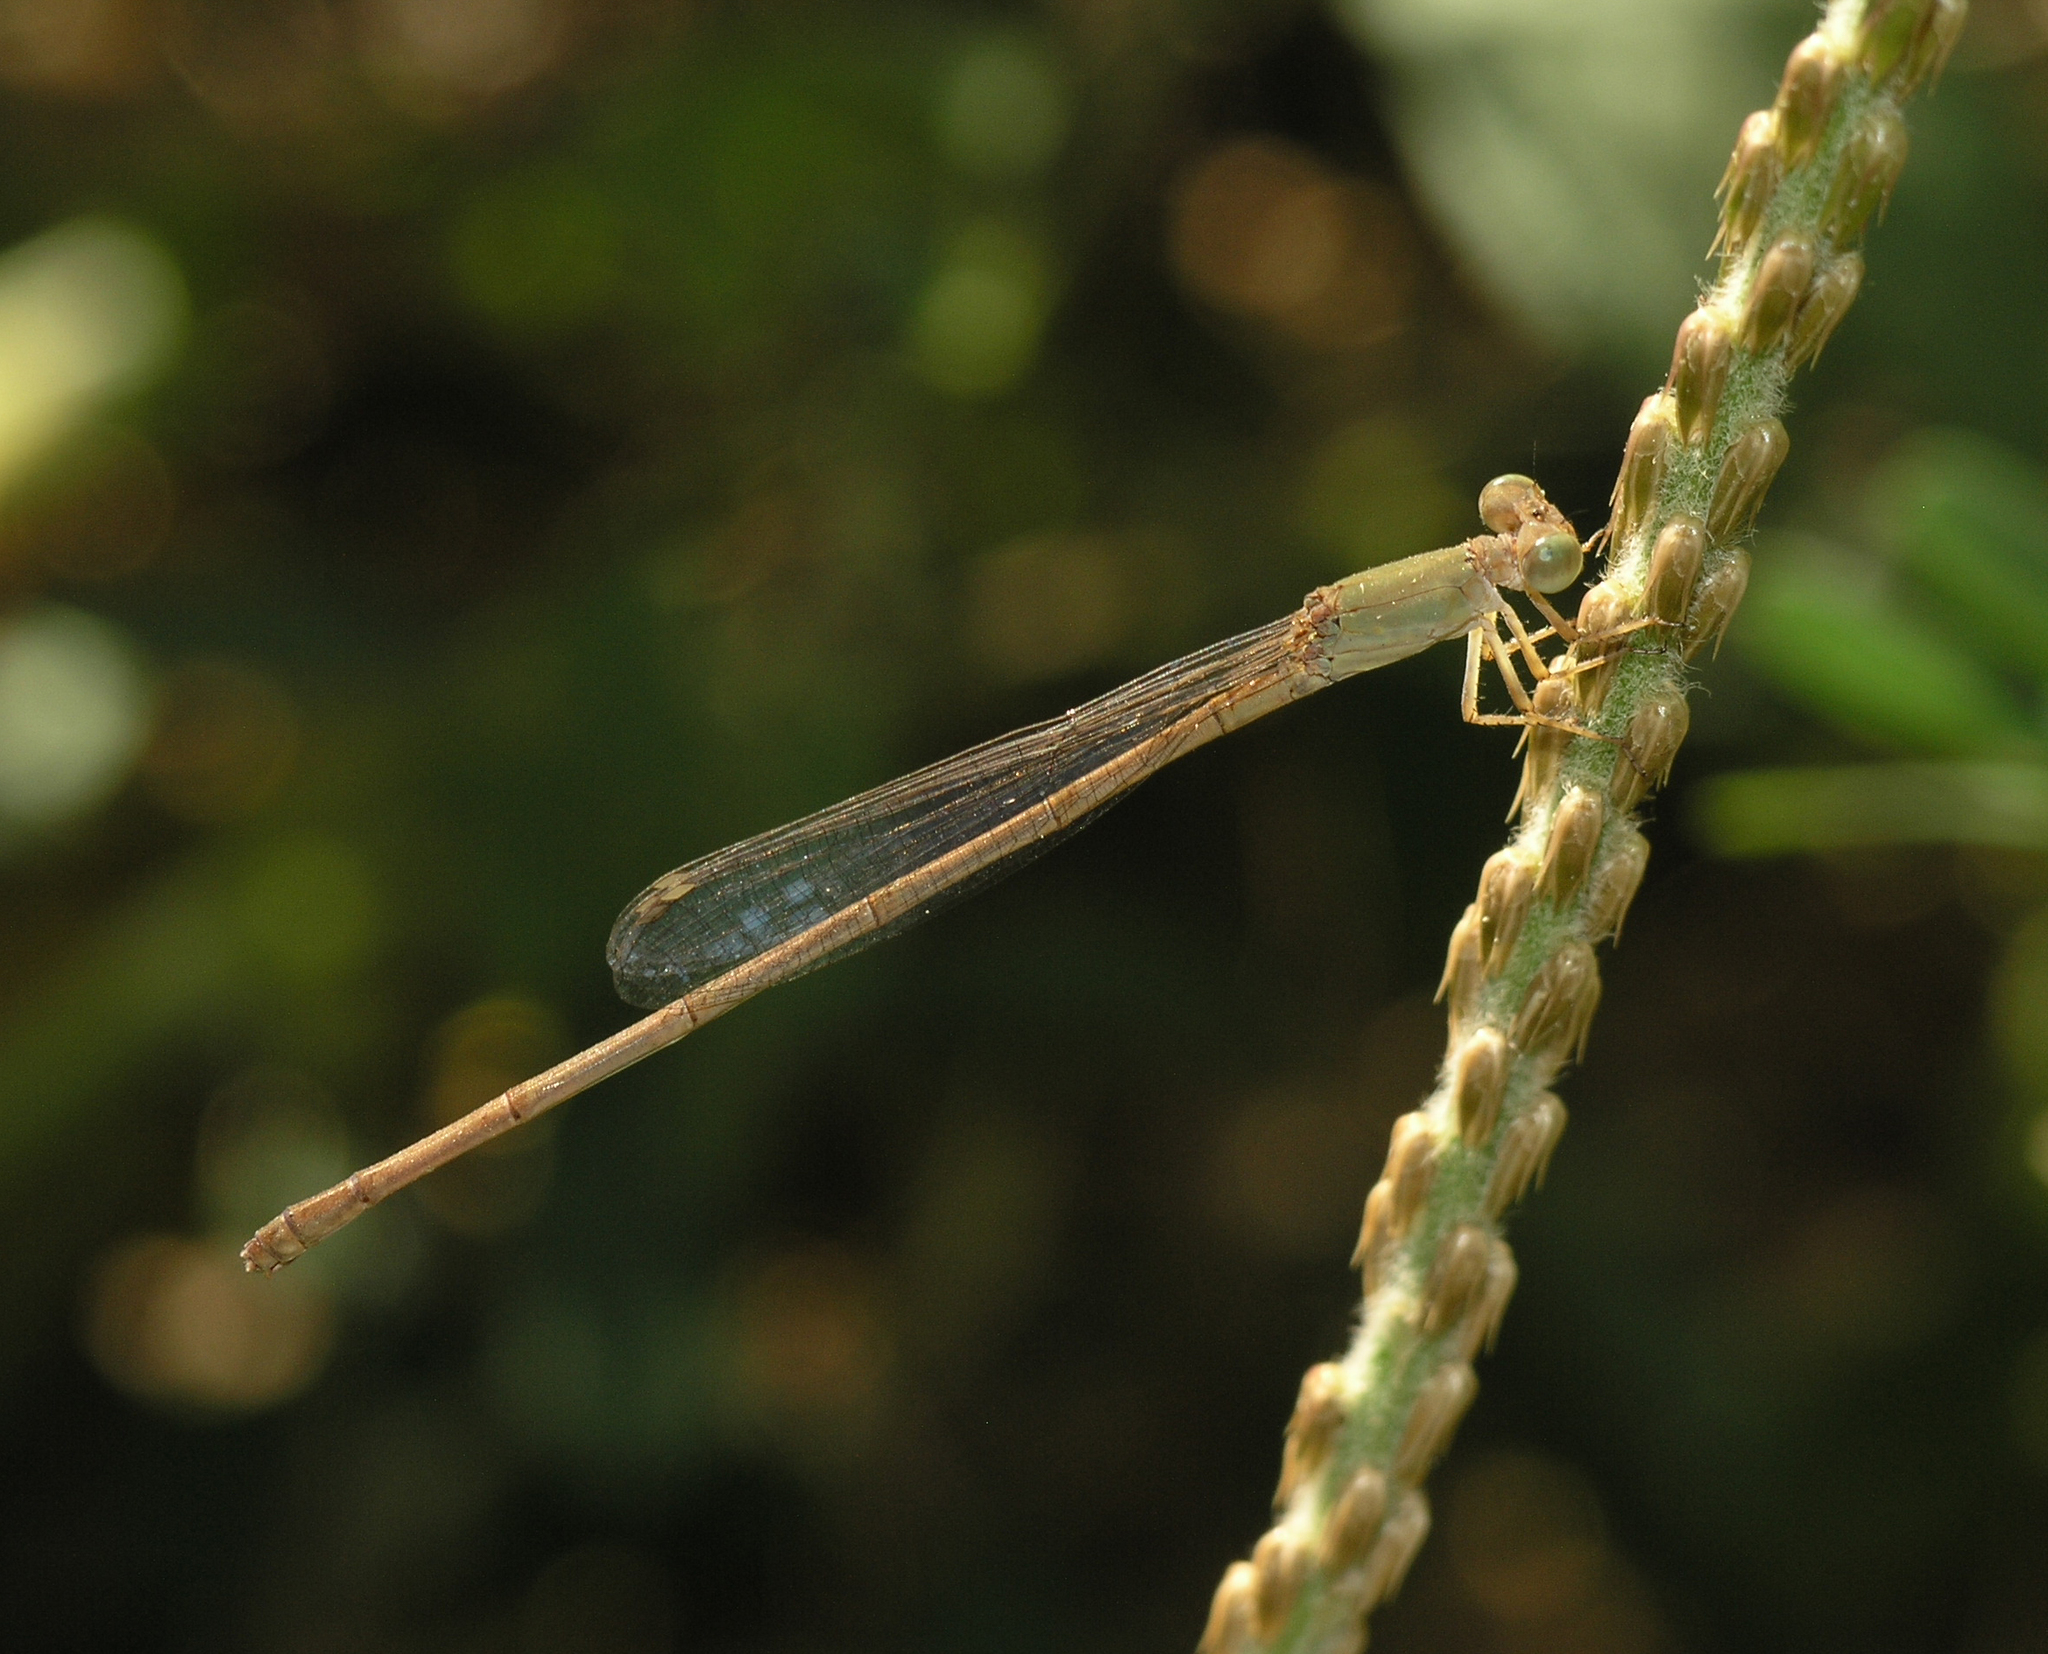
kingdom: Animalia
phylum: Arthropoda
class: Insecta
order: Odonata
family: Coenagrionidae
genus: Ceriagrion
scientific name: Ceriagrion olivaceum
